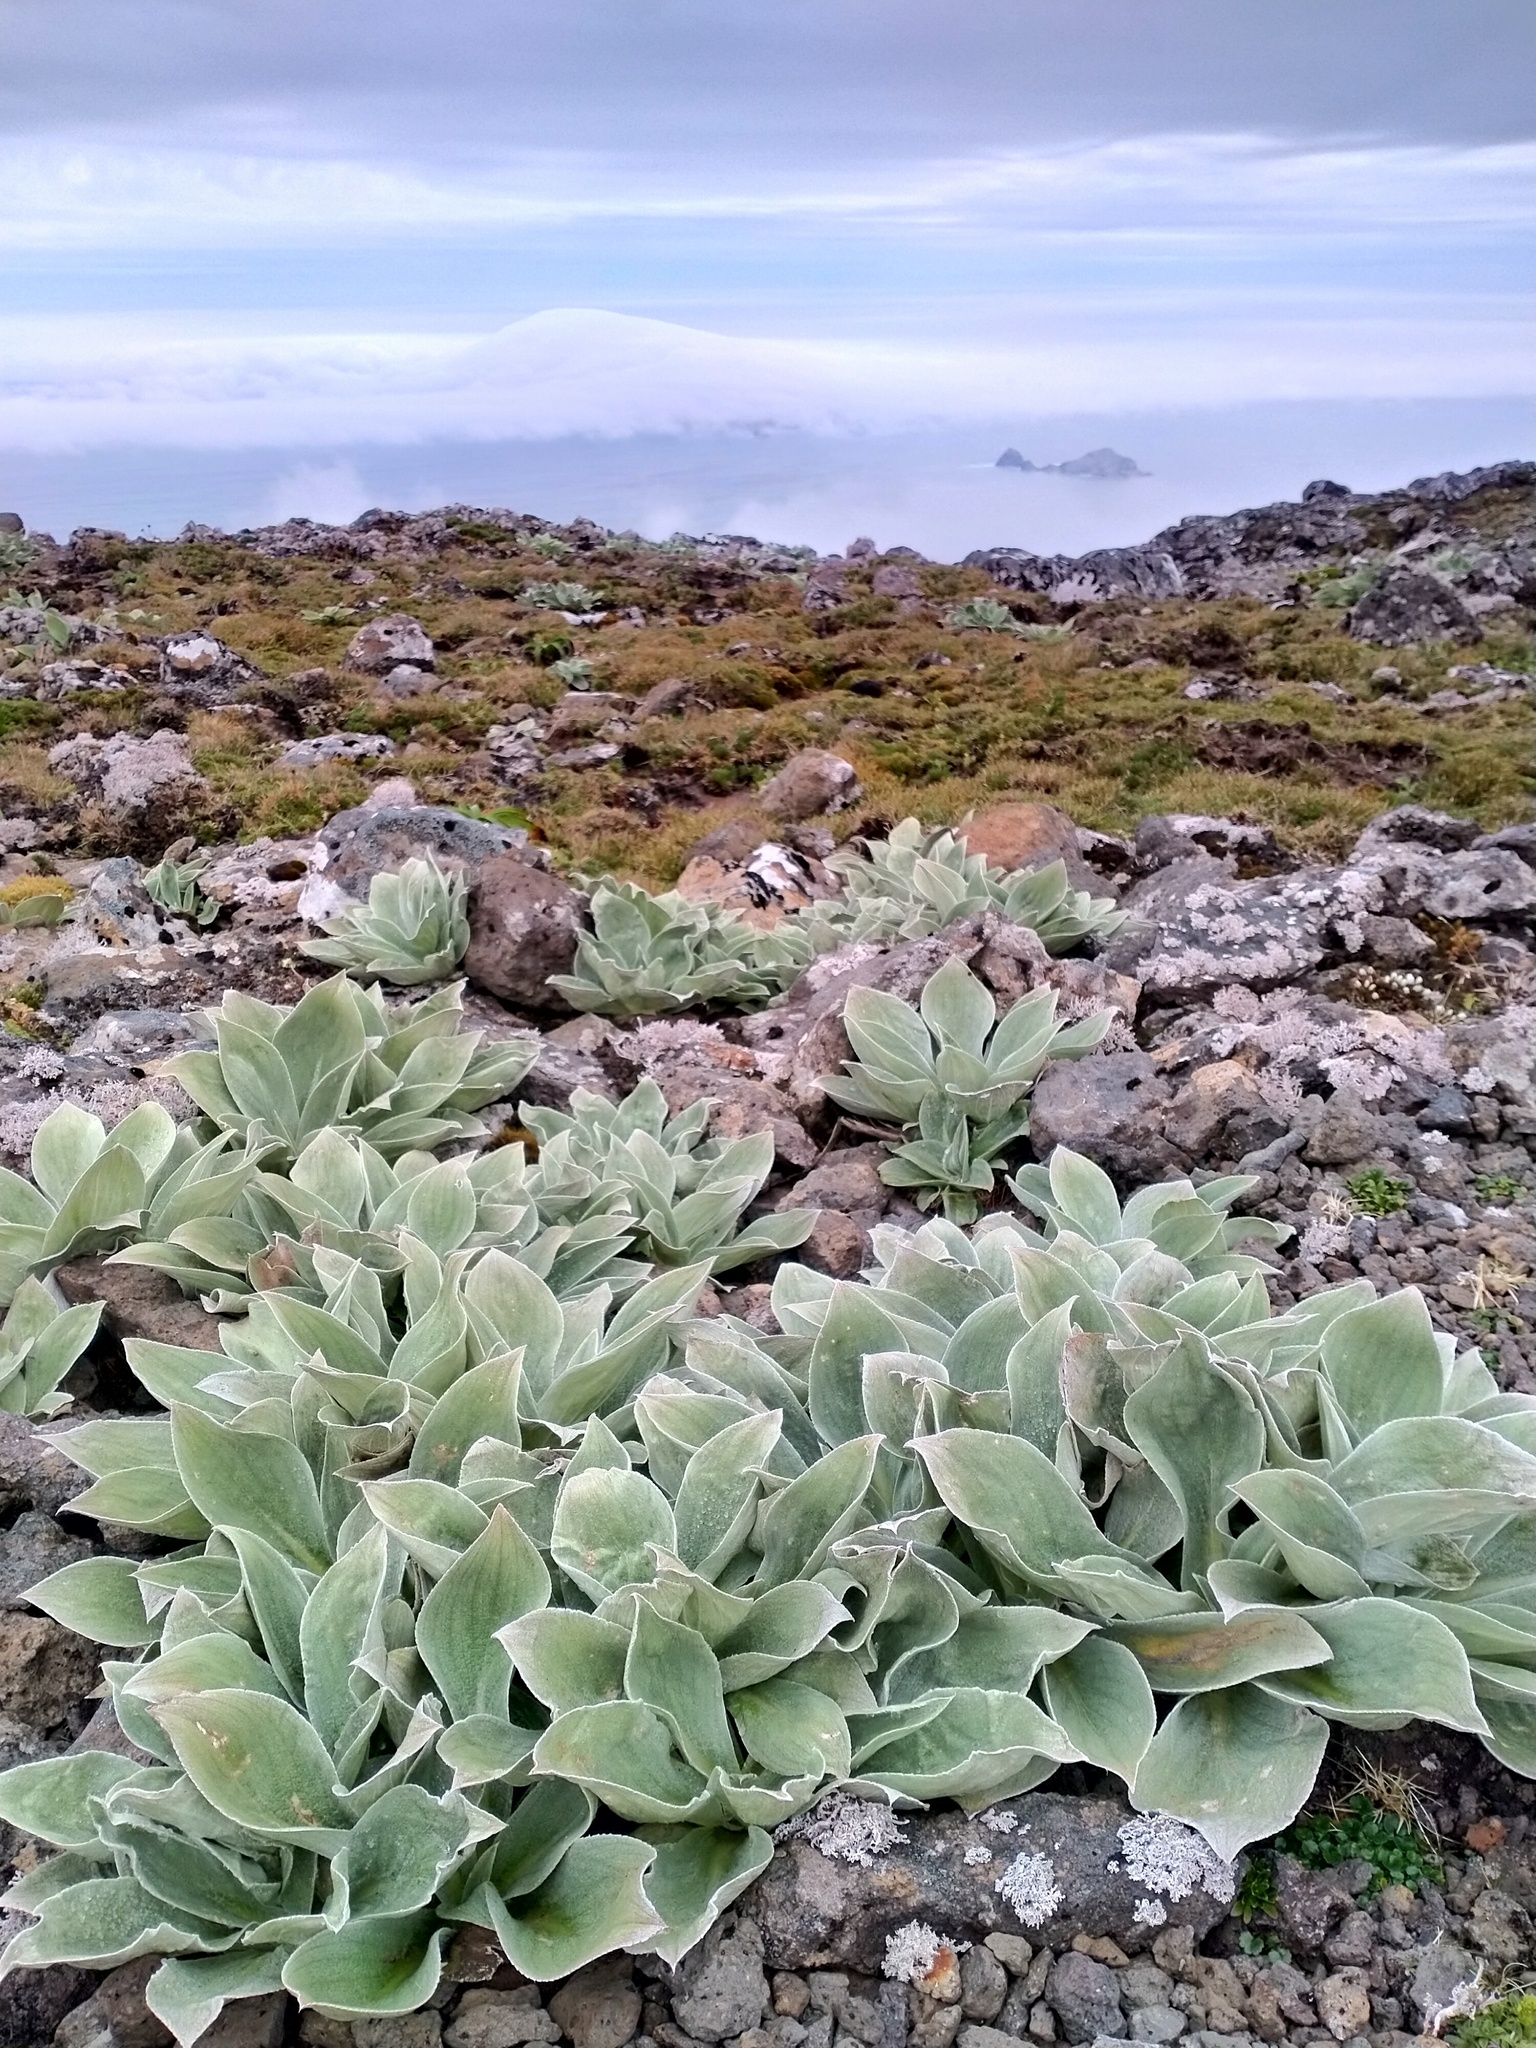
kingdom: Plantae
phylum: Tracheophyta
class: Magnoliopsida
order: Asterales
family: Asteraceae
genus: Pleurophyllum
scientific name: Pleurophyllum hookeri
